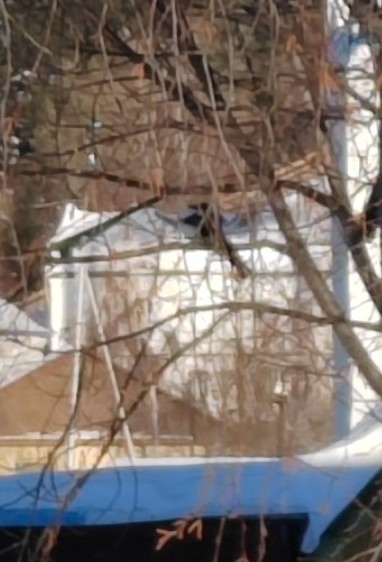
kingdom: Animalia
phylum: Chordata
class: Aves
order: Passeriformes
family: Corvidae
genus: Pica
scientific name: Pica pica
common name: Eurasian magpie
